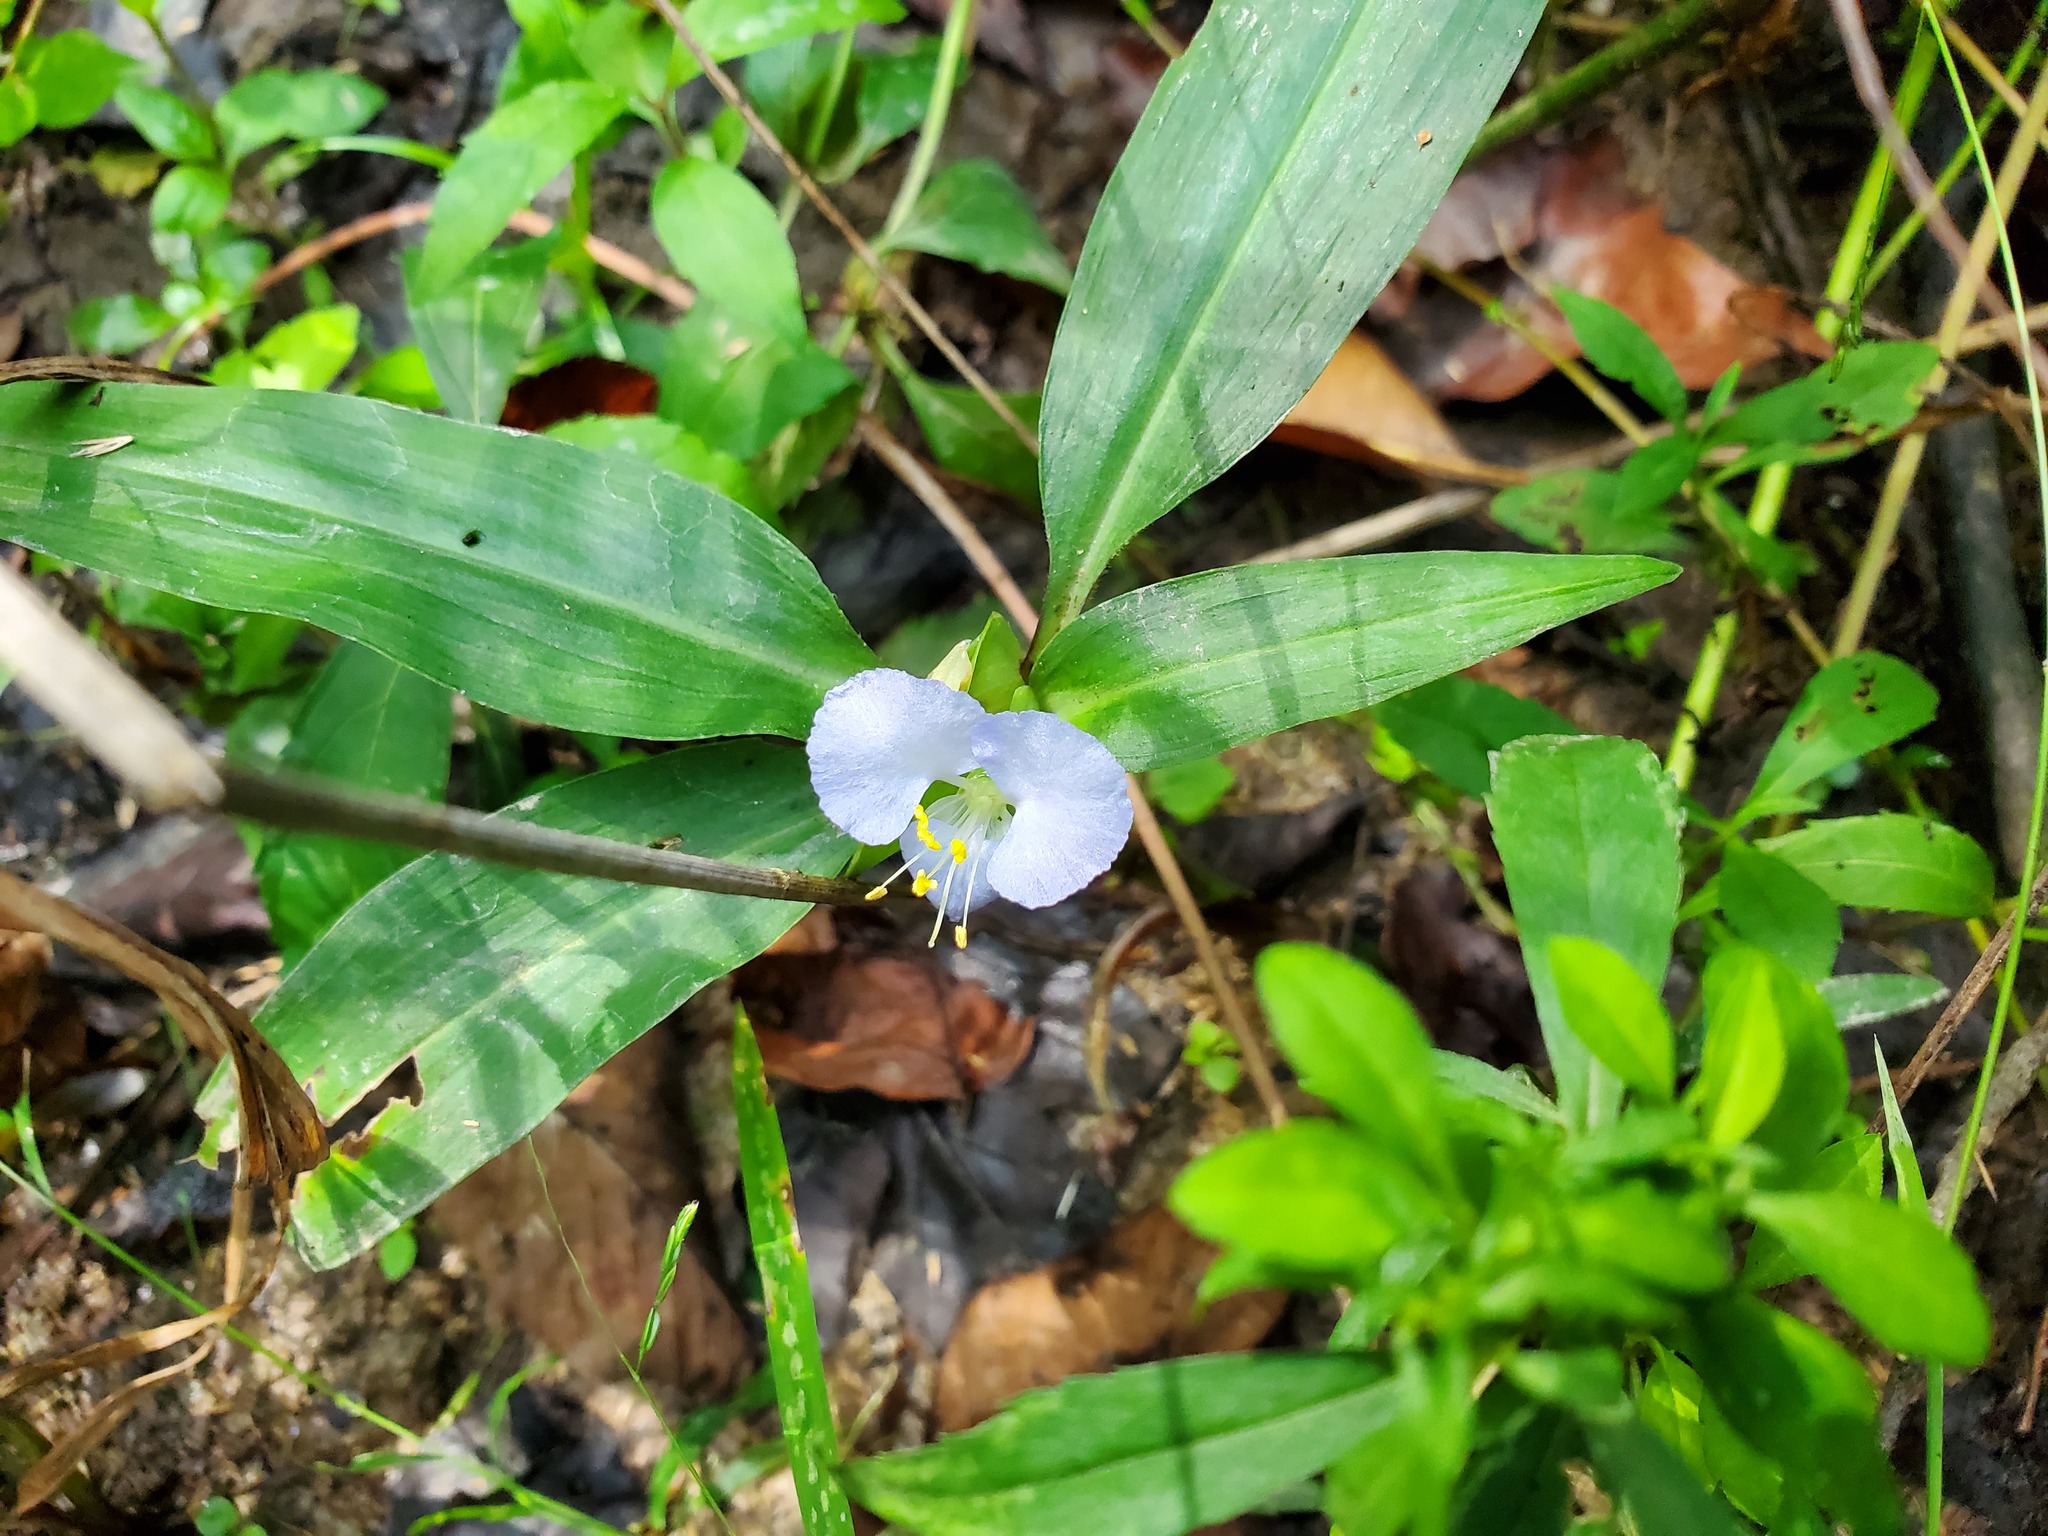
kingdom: Plantae
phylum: Tracheophyta
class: Liliopsida
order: Commelinales
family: Commelinaceae
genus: Commelina
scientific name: Commelina virginica
